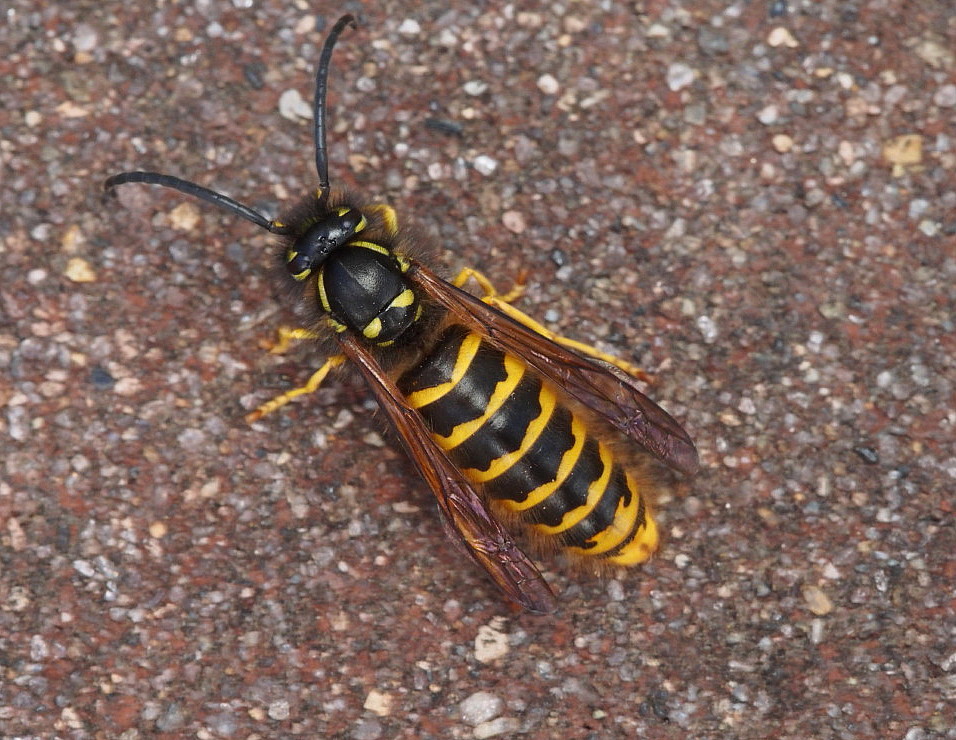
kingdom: Animalia
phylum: Arthropoda
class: Insecta
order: Hymenoptera
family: Vespidae
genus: Vespula
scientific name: Vespula vulgaris
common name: Common wasp
